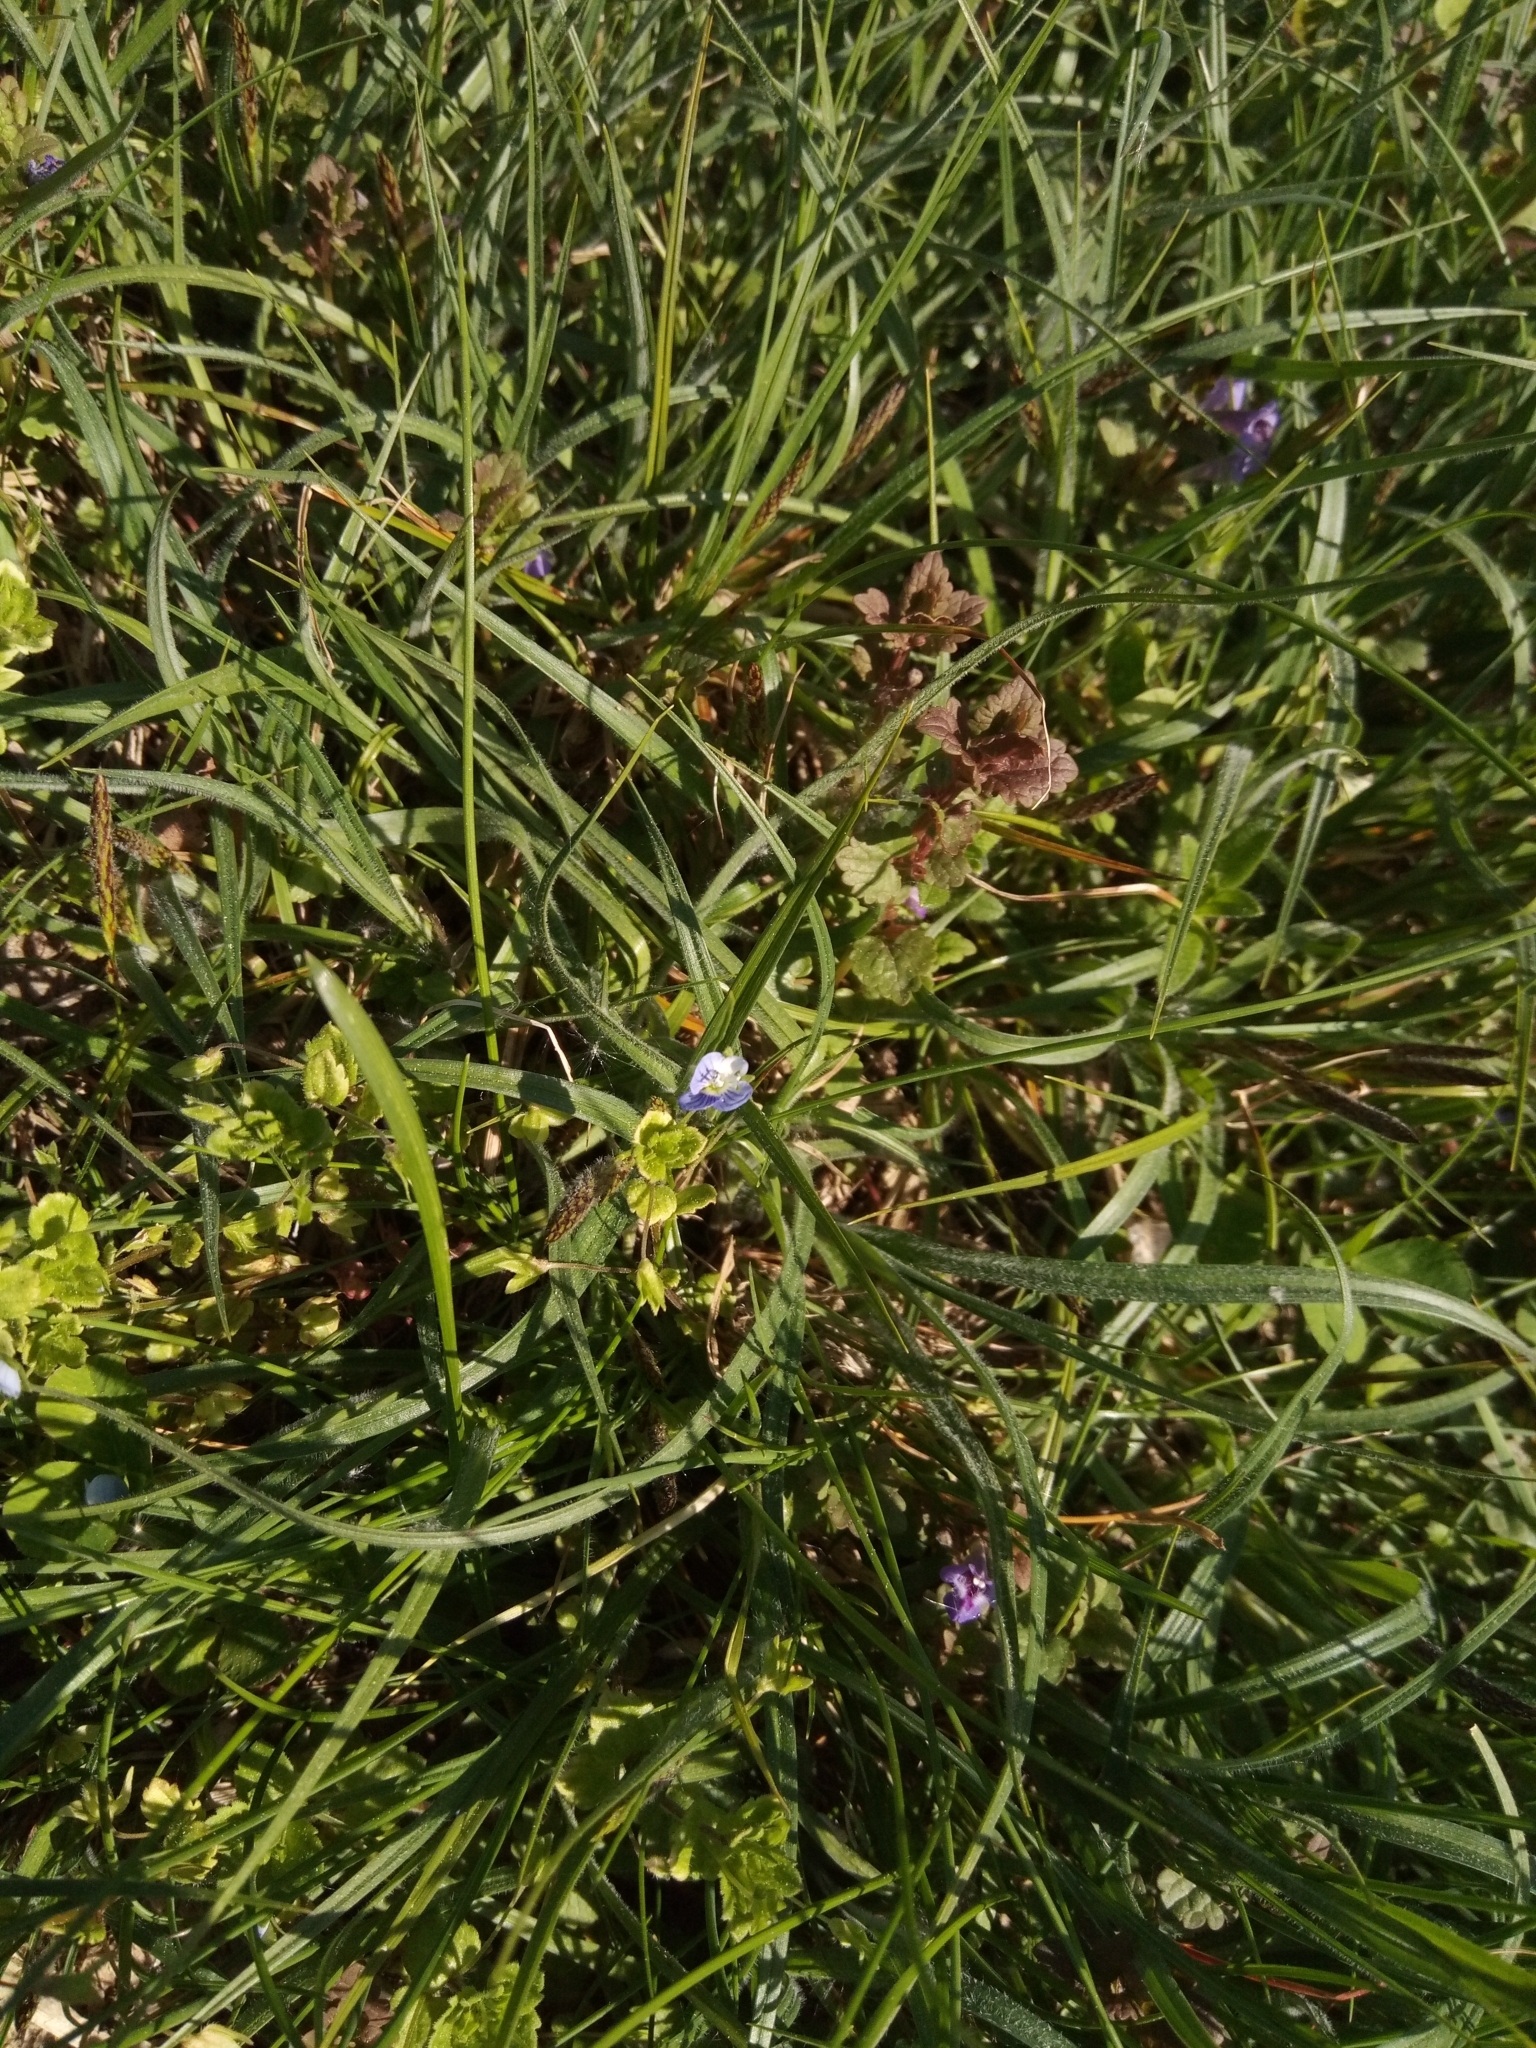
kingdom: Plantae
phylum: Tracheophyta
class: Magnoliopsida
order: Lamiales
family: Plantaginaceae
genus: Veronica
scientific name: Veronica persica
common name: Common field-speedwell
